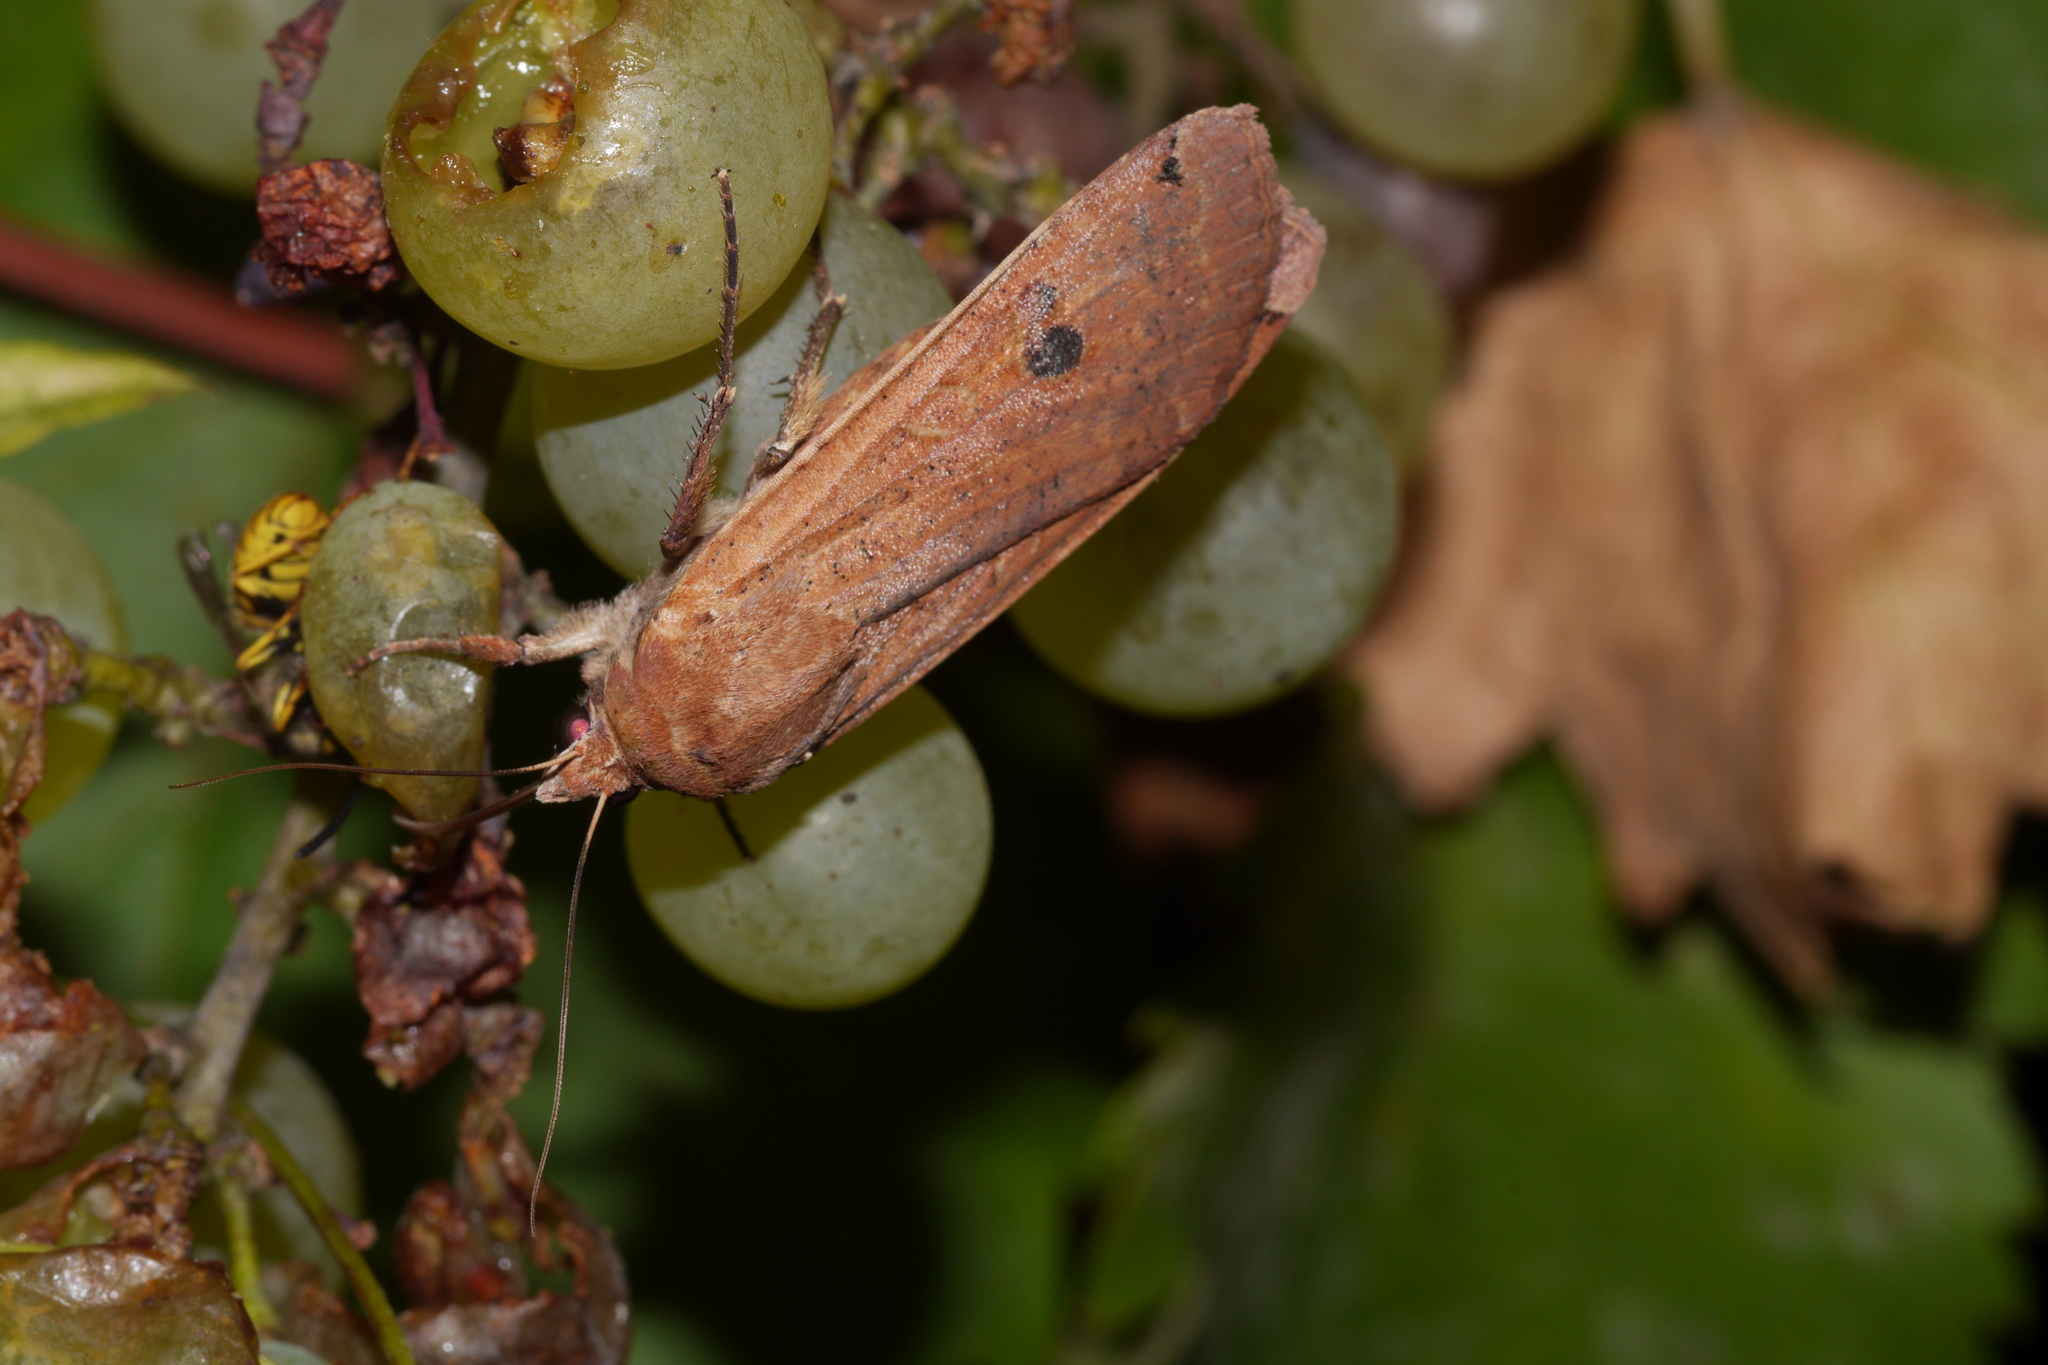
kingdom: Animalia
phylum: Arthropoda
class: Insecta
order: Lepidoptera
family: Noctuidae
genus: Noctua
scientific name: Noctua pronuba
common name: Large yellow underwing
